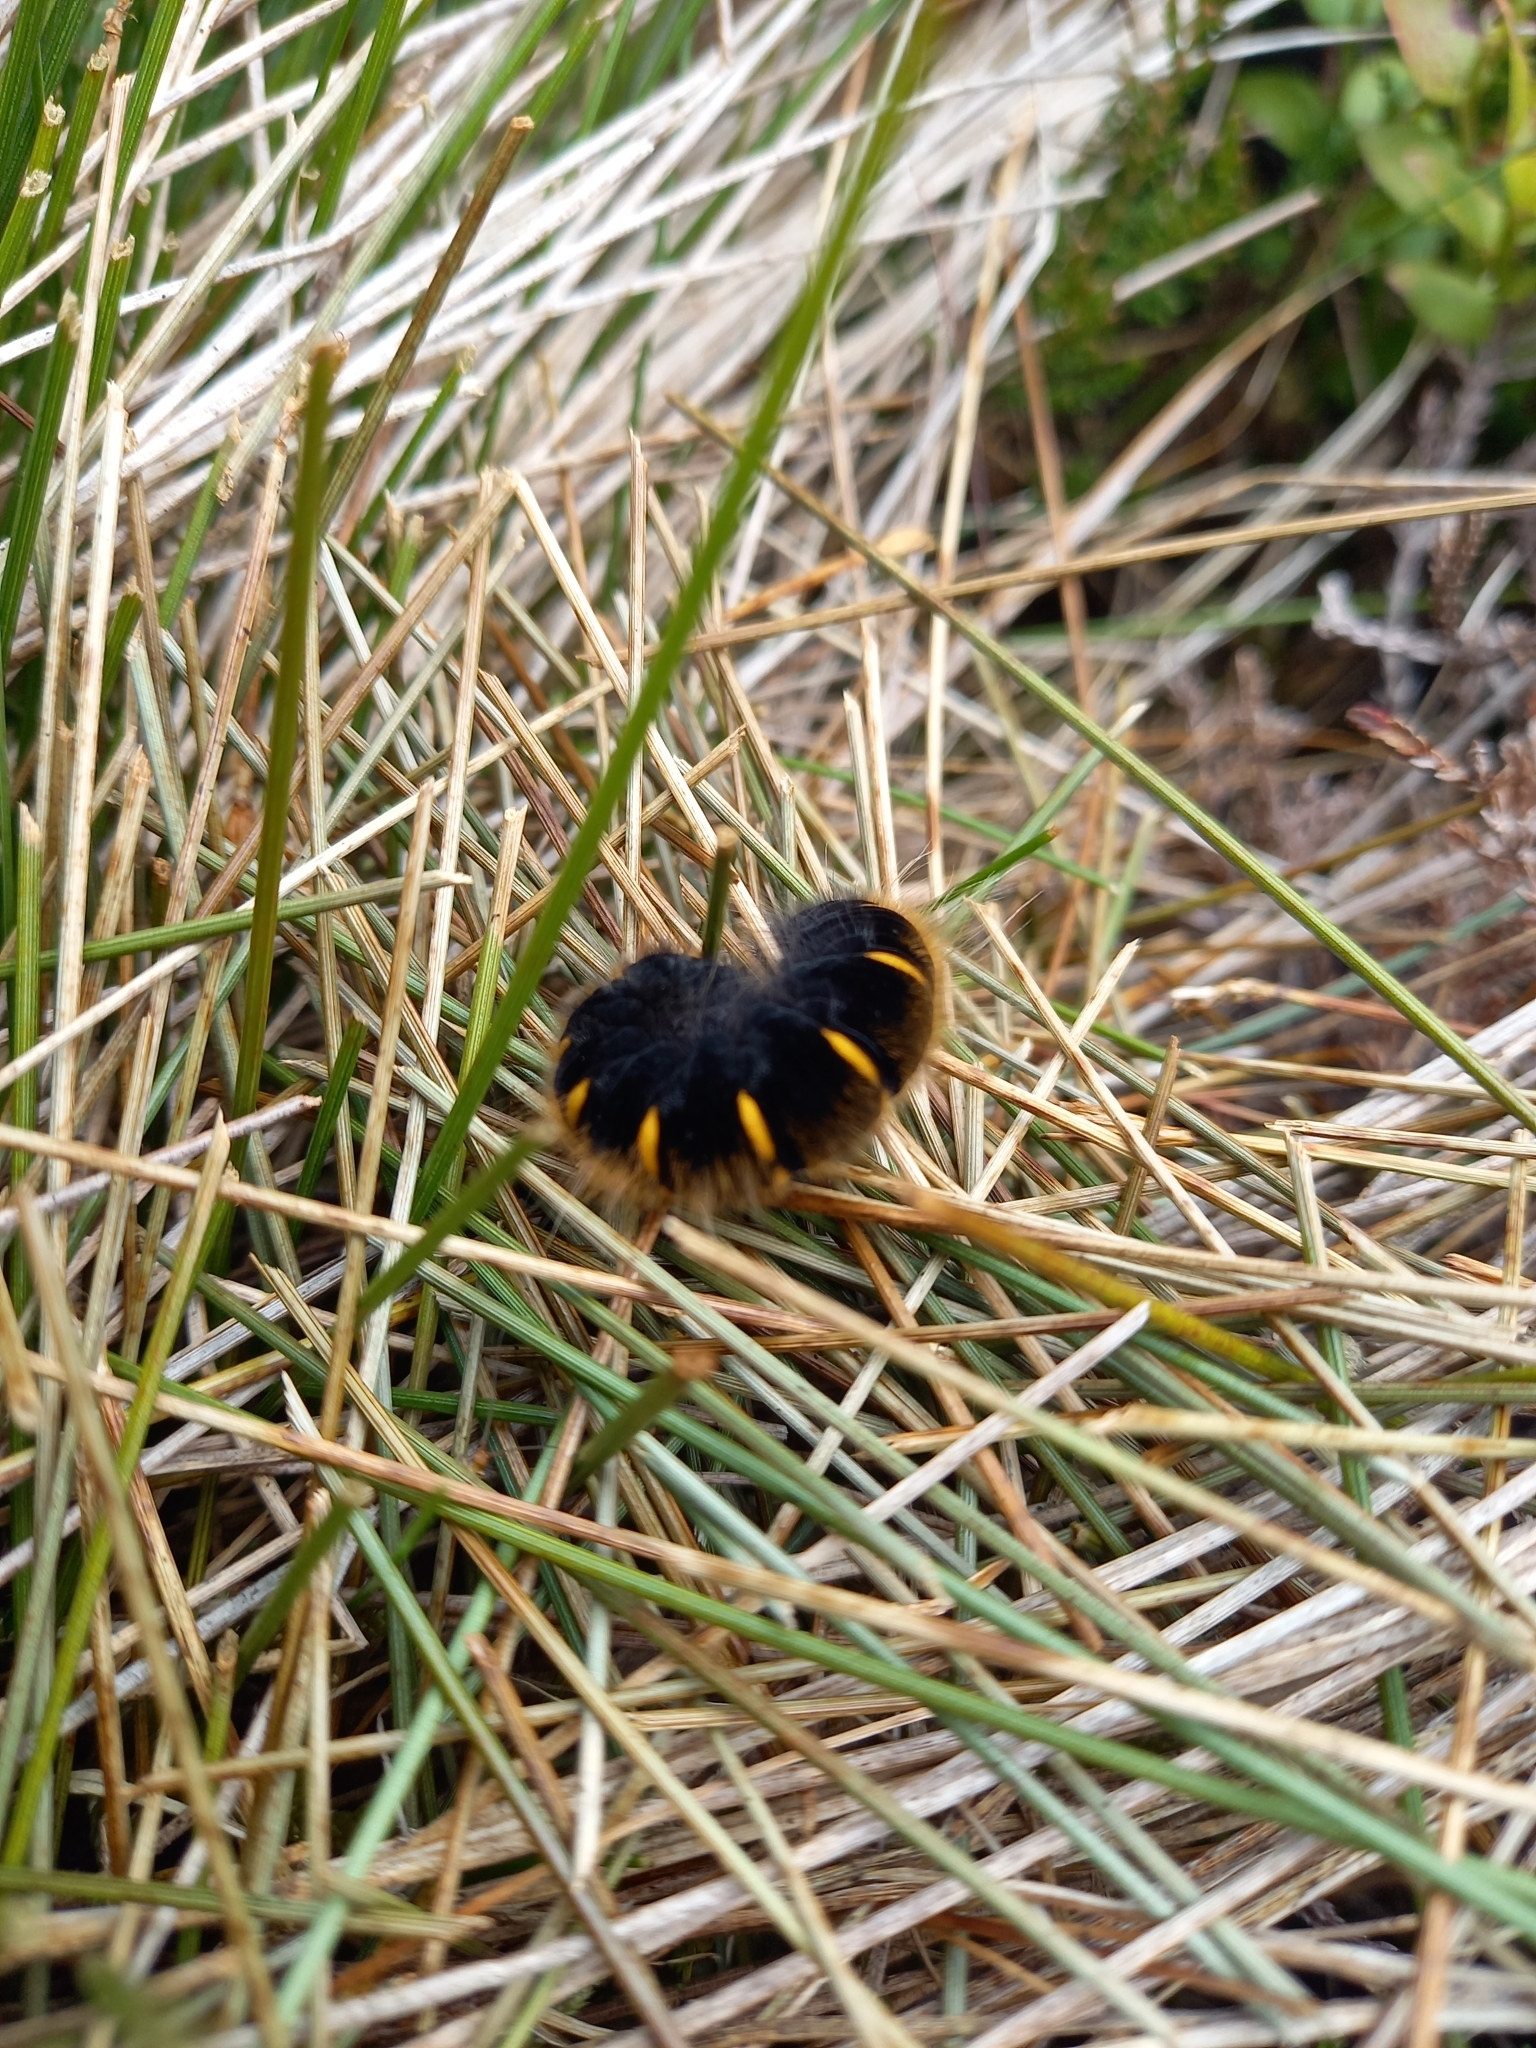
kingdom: Animalia
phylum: Arthropoda
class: Insecta
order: Lepidoptera
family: Lasiocampidae
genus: Macrothylacia
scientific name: Macrothylacia rubi
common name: Fox moth
